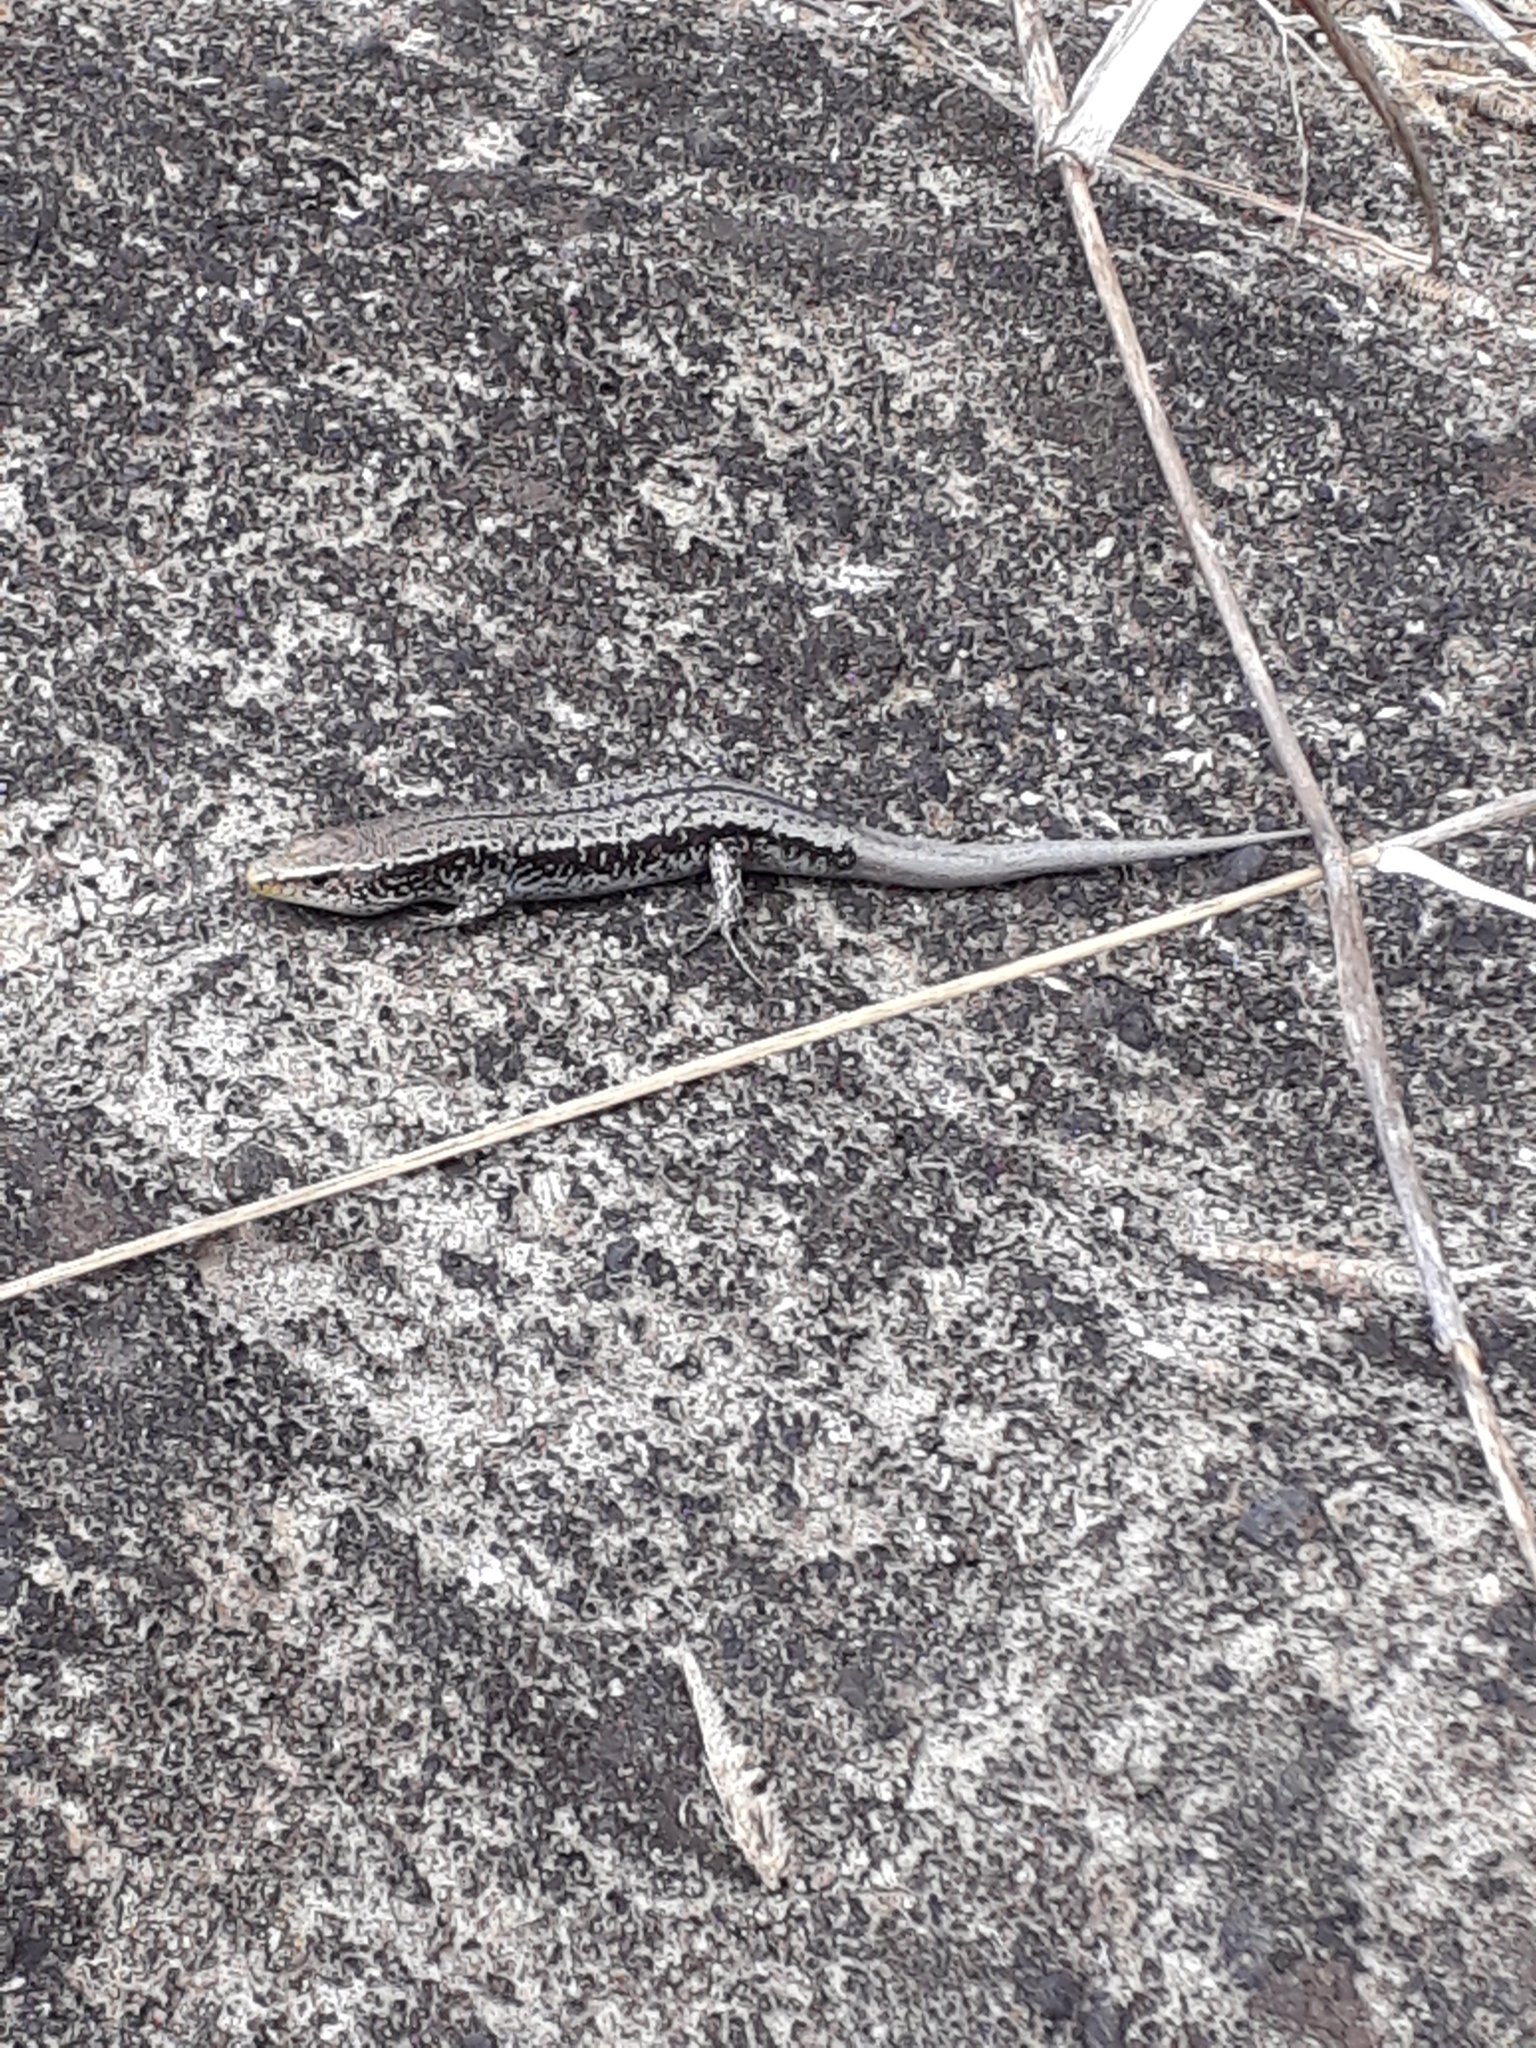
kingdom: Animalia
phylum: Chordata
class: Squamata
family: Scincidae
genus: Gongylomorphus
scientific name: Gongylomorphus bojerii
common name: Bojer's skink
